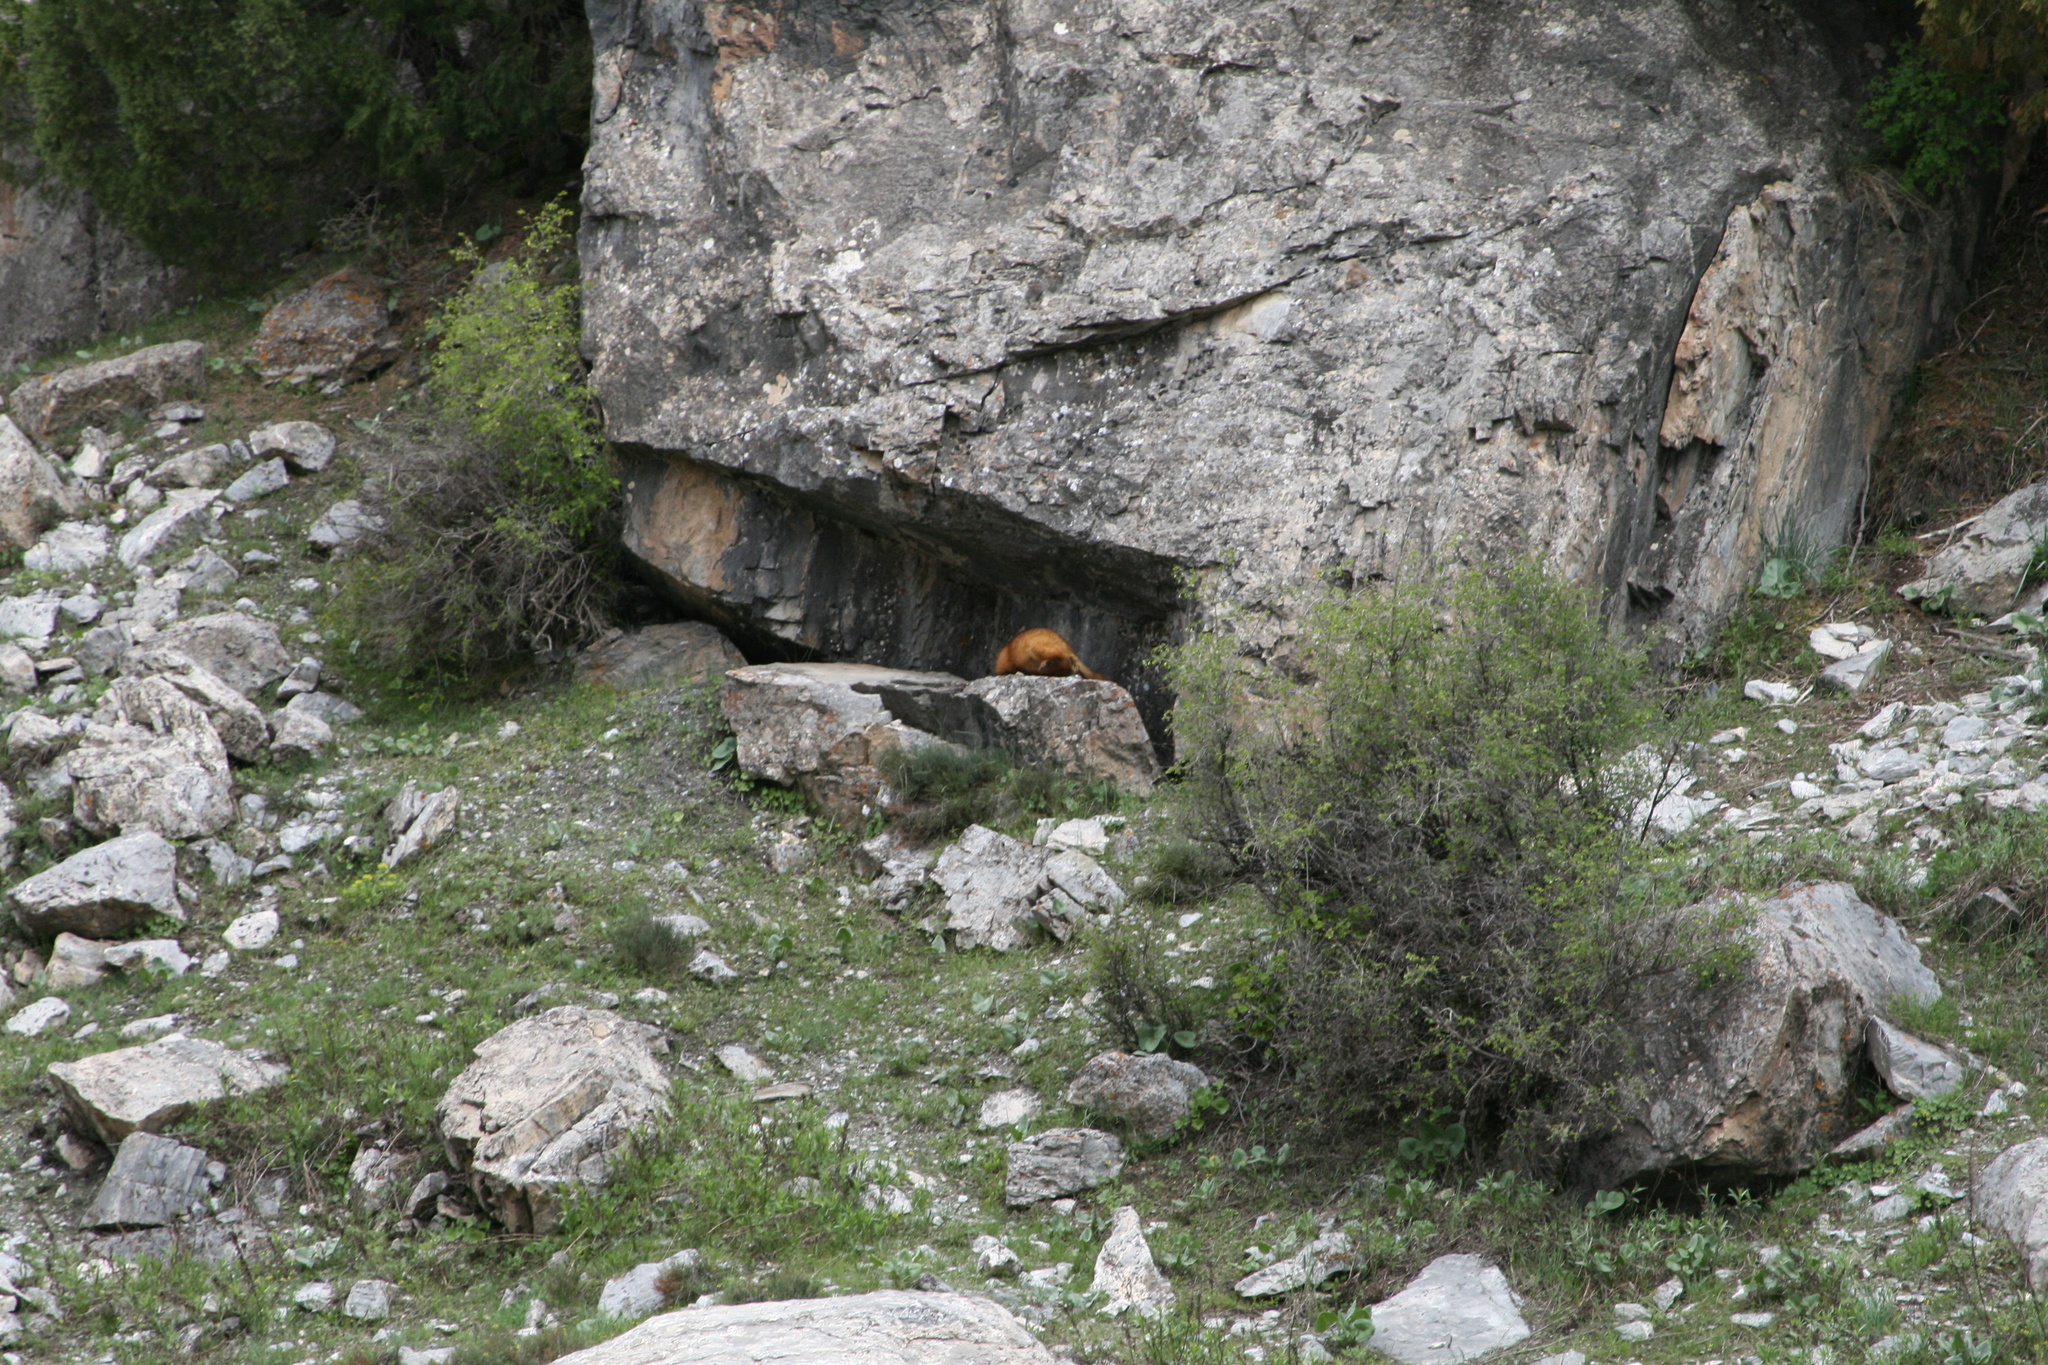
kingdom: Animalia
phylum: Chordata
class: Mammalia
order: Rodentia
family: Sciuridae
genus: Marmota
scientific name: Marmota caudata
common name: Long-tailed marmot
